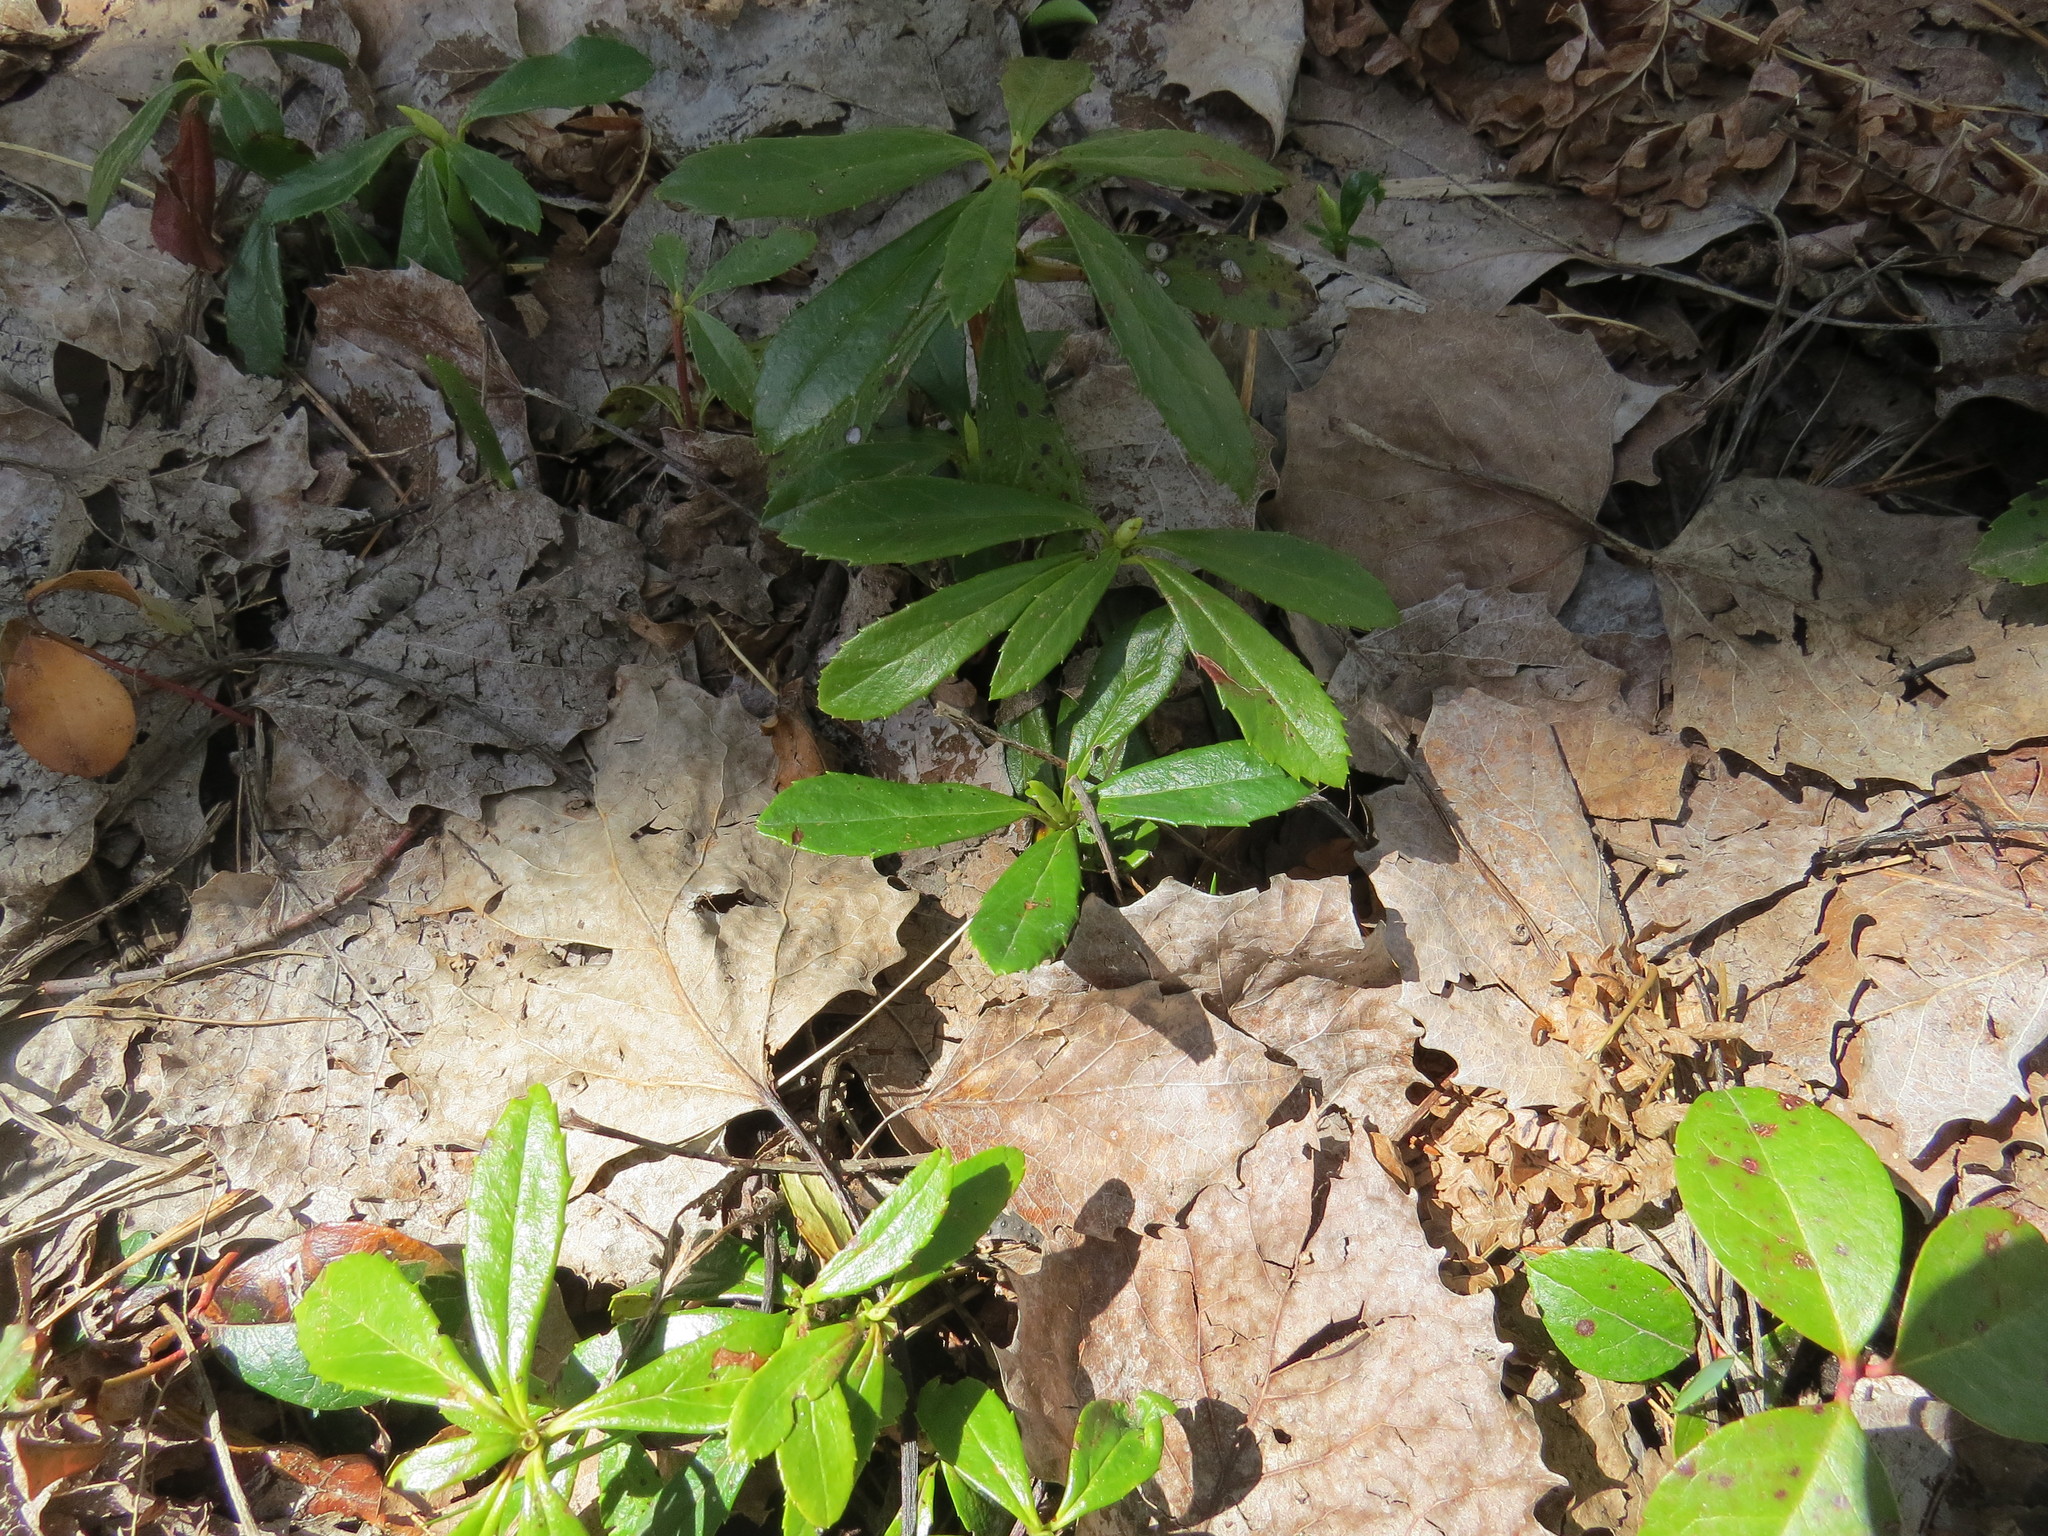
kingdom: Plantae
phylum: Tracheophyta
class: Magnoliopsida
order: Ericales
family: Ericaceae
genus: Chimaphila
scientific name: Chimaphila umbellata
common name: Pipsissewa
